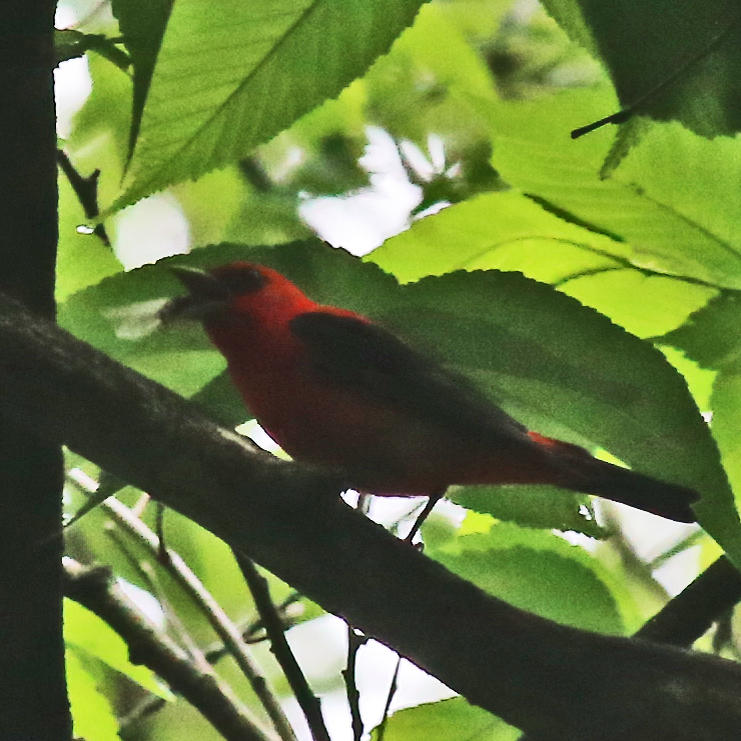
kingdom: Animalia
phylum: Chordata
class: Aves
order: Passeriformes
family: Cardinalidae
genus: Piranga
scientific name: Piranga olivacea
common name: Scarlet tanager
